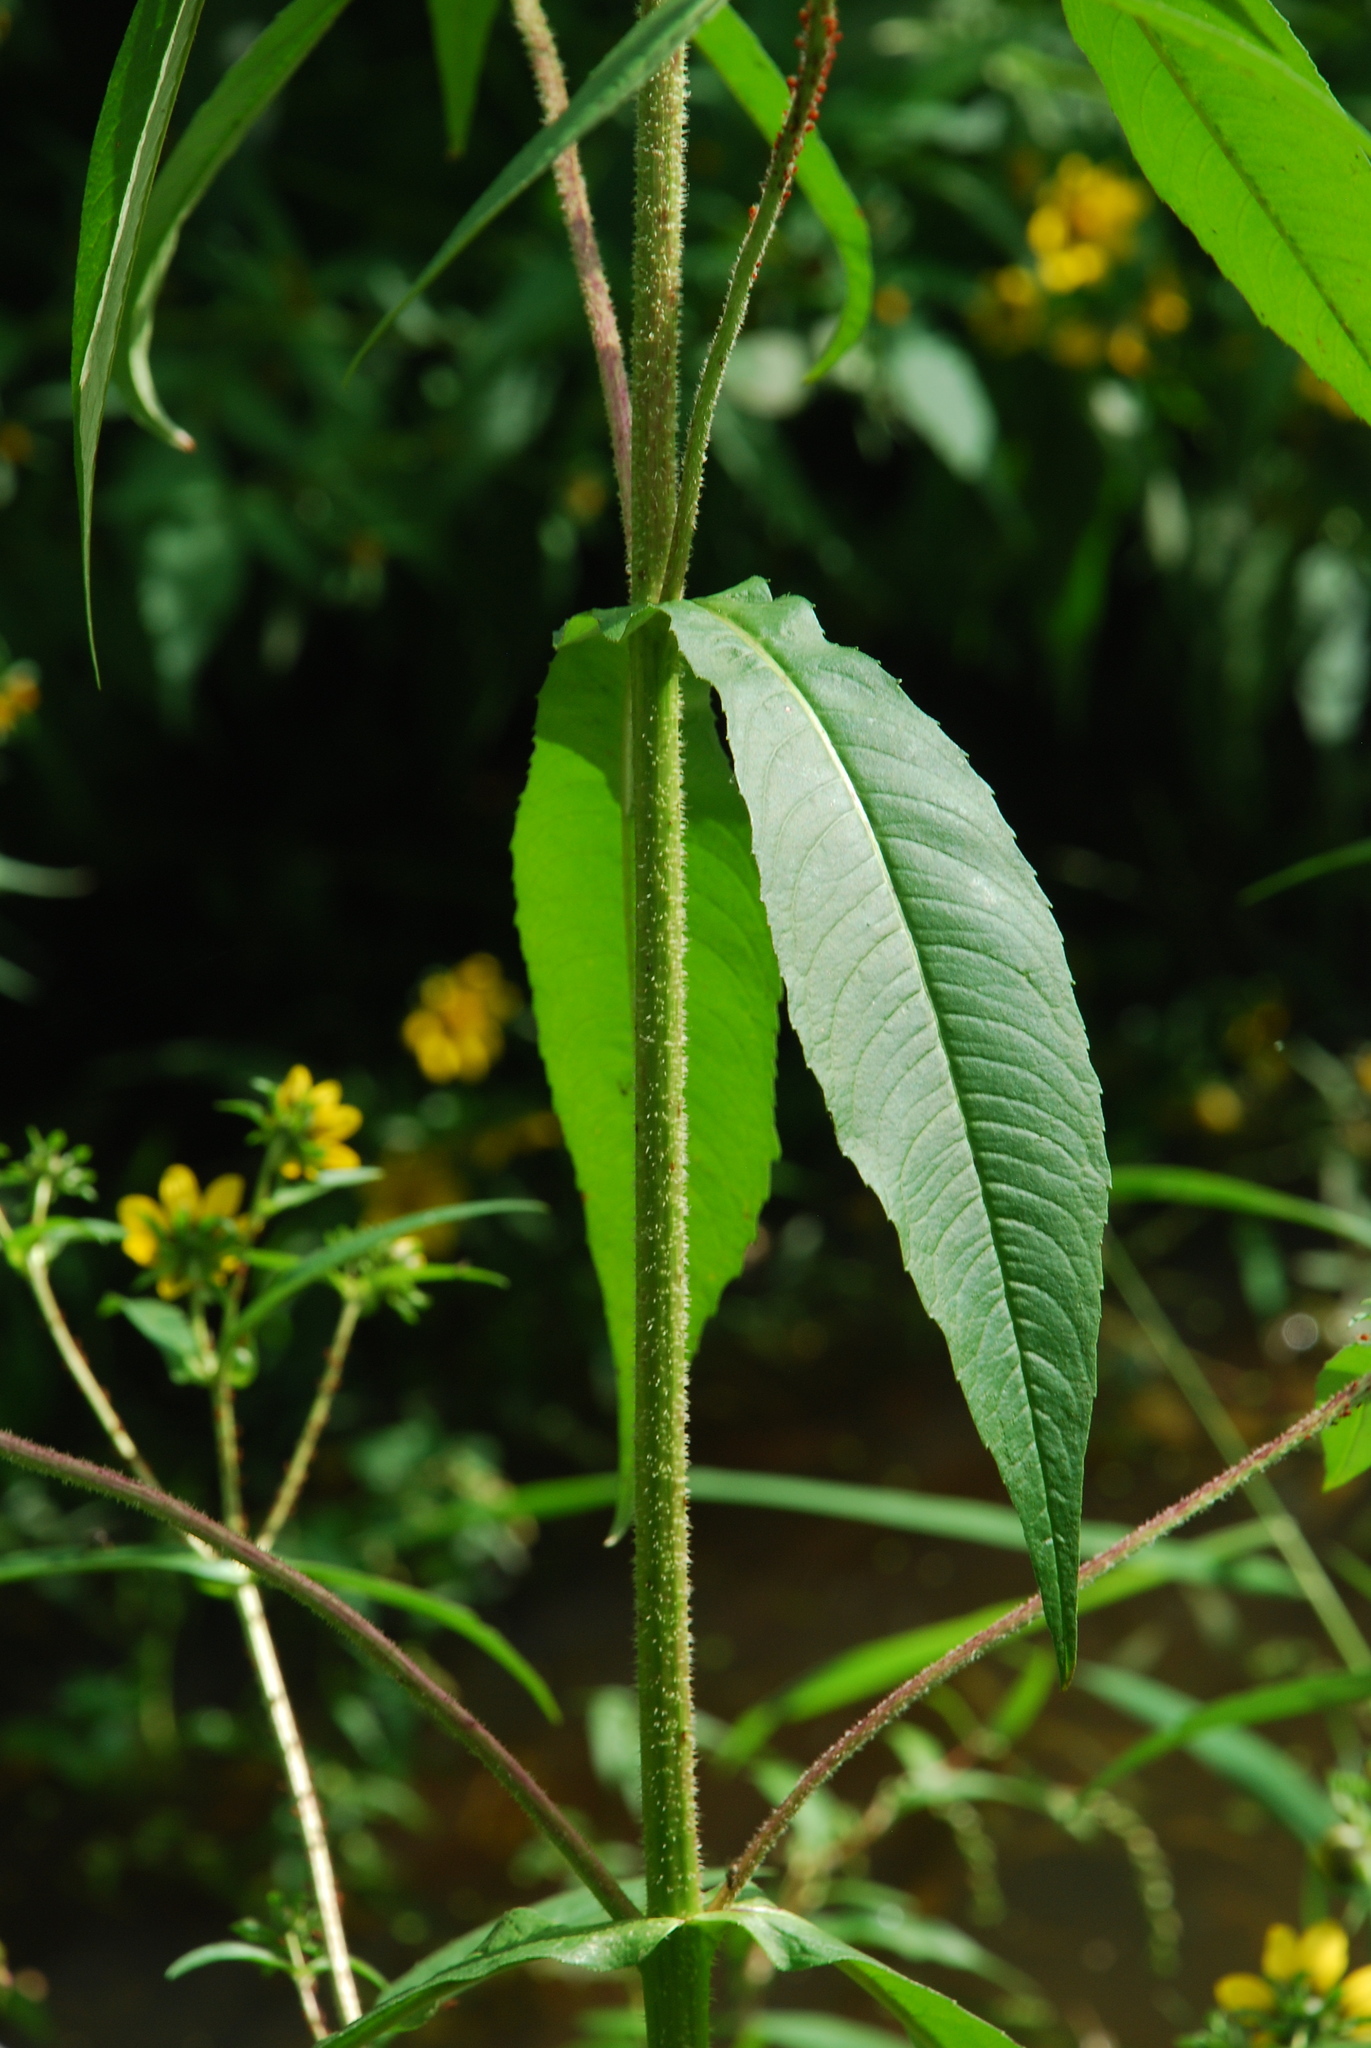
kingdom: Plantae
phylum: Tracheophyta
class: Magnoliopsida
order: Asterales
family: Asteraceae
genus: Bidens
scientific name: Bidens cernua
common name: Nodding bur-marigold
